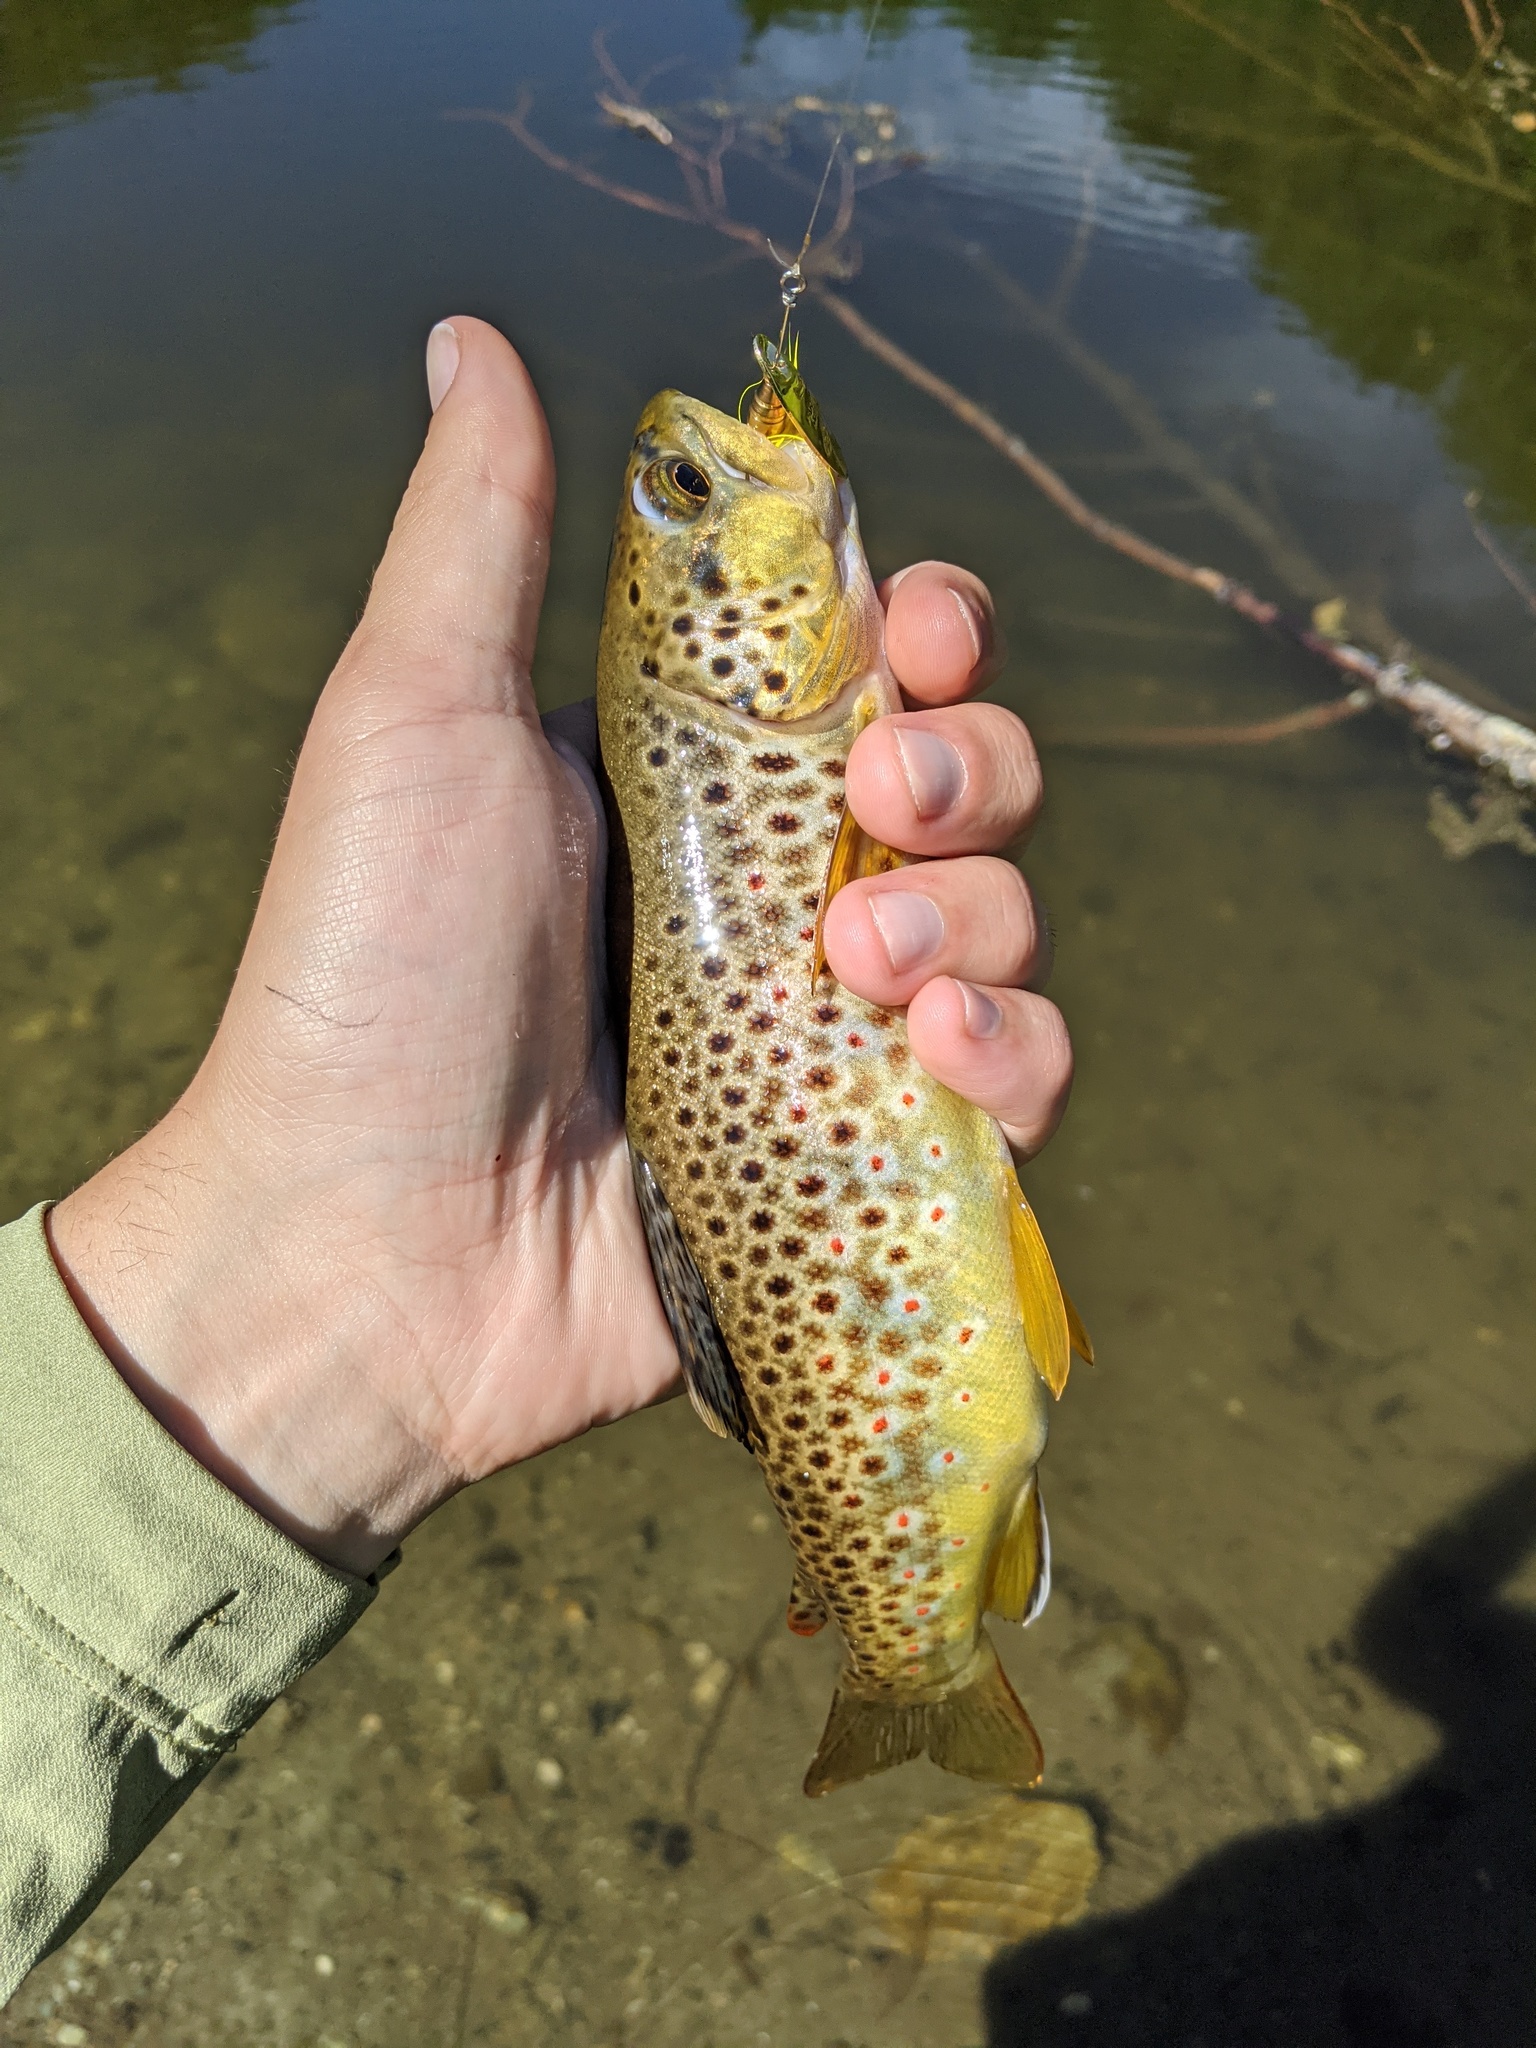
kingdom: Animalia
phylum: Chordata
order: Salmoniformes
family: Salmonidae
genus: Salmo
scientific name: Salmo trutta
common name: Brown trout
